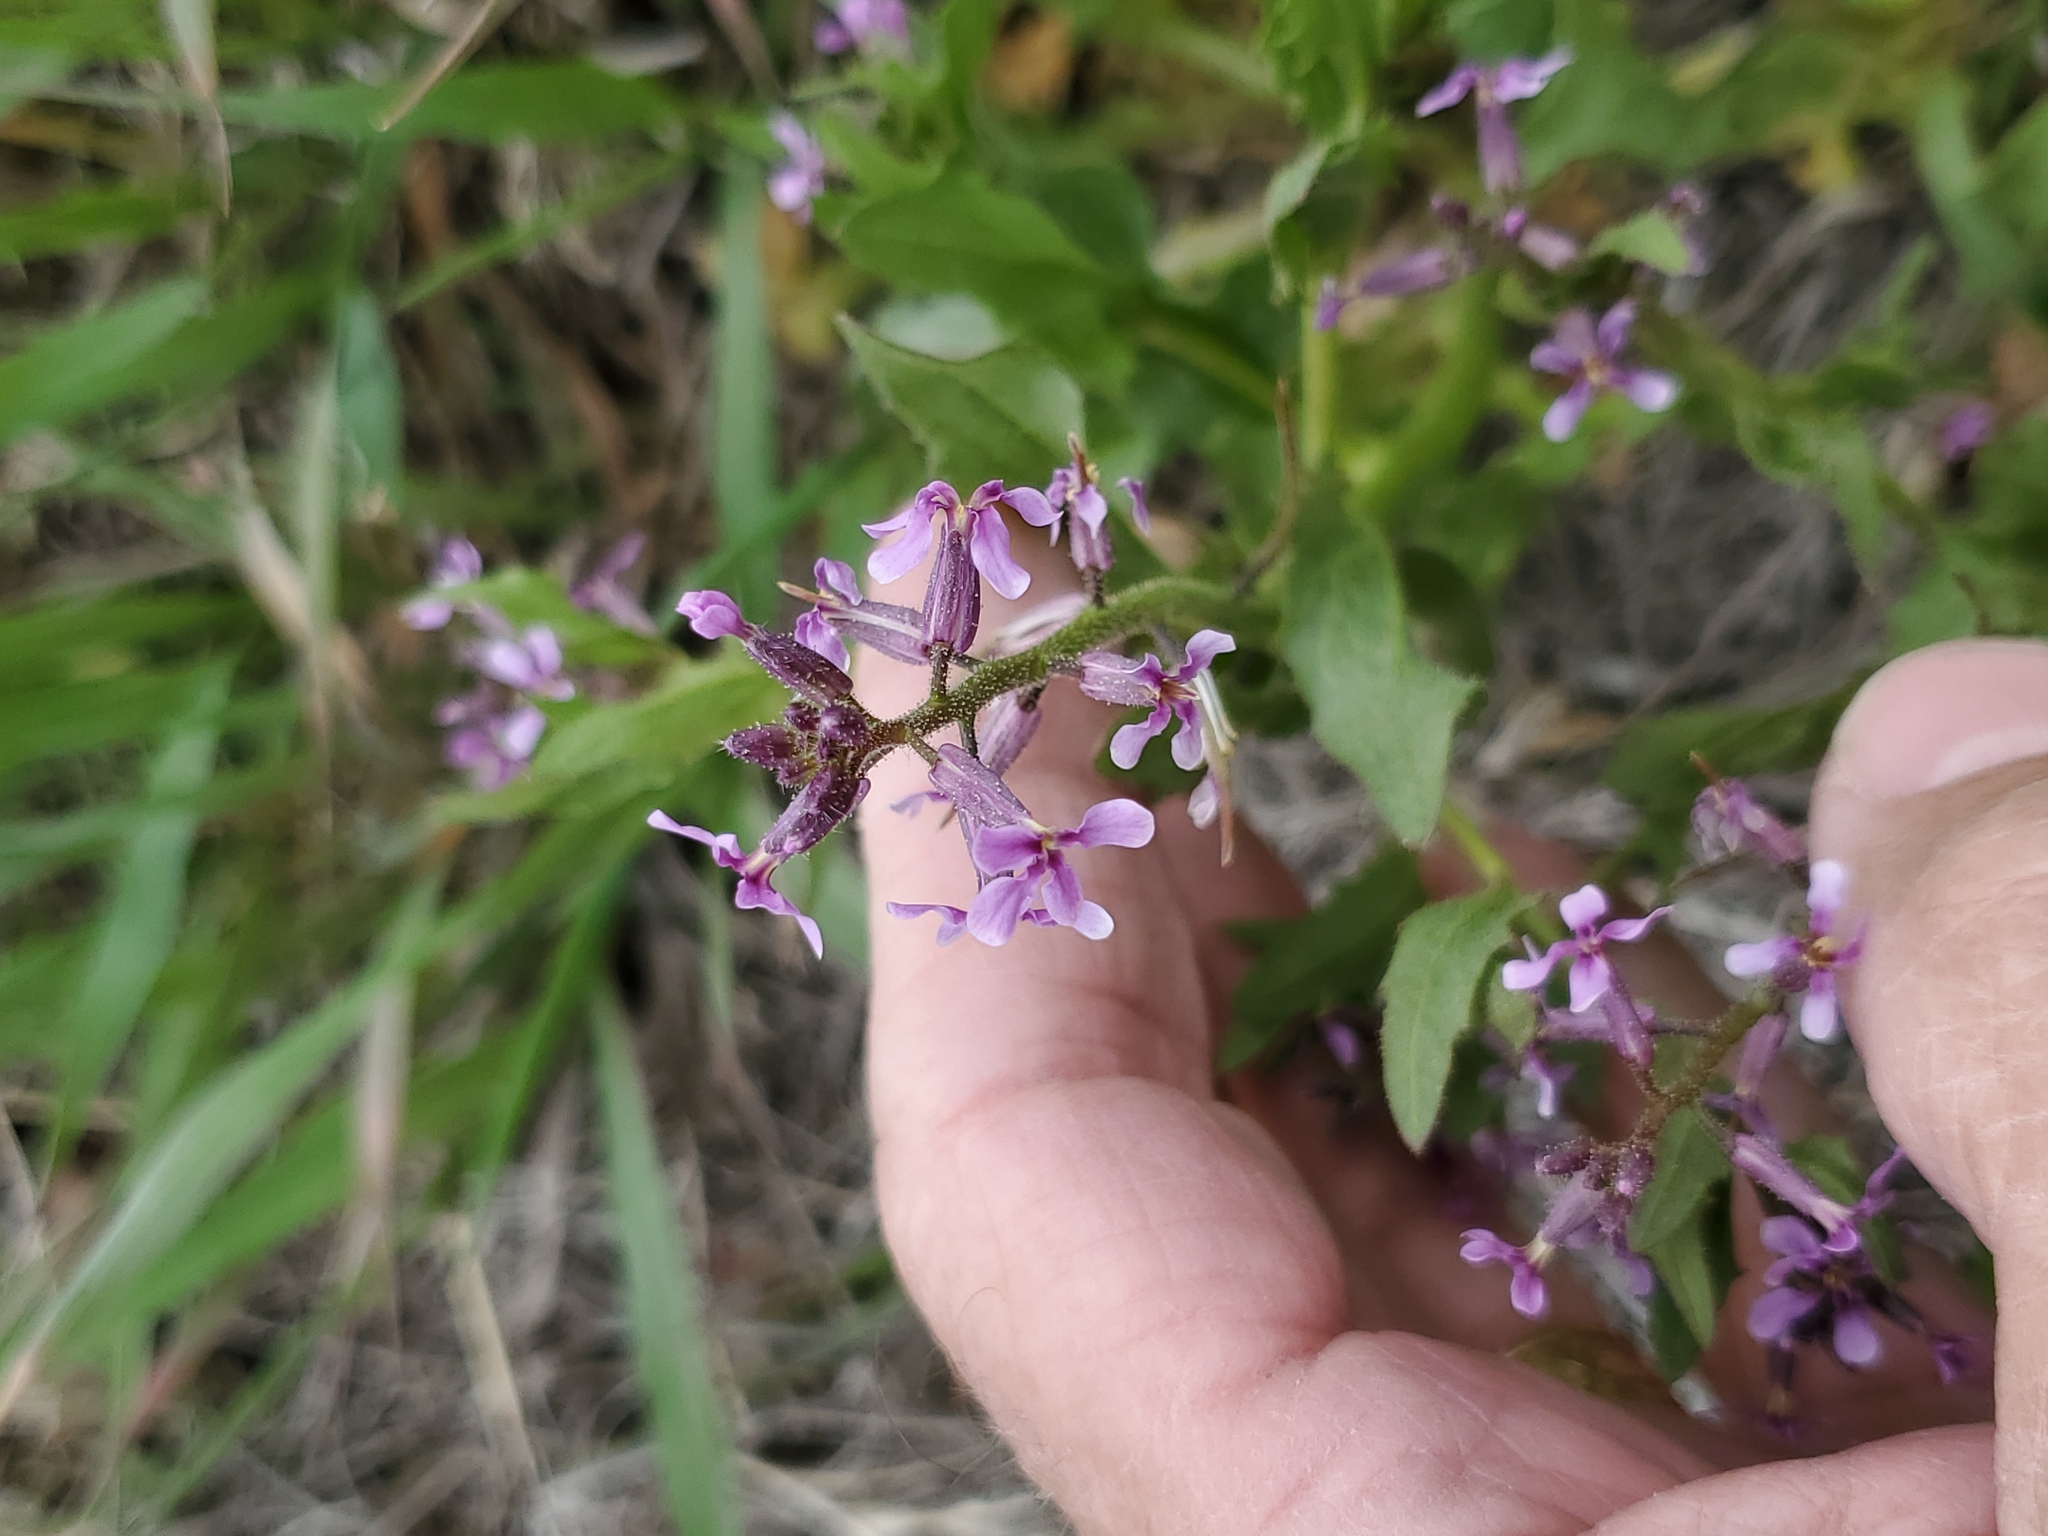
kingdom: Plantae
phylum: Tracheophyta
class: Magnoliopsida
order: Brassicales
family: Brassicaceae
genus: Chorispora
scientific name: Chorispora tenella
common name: Crossflower
